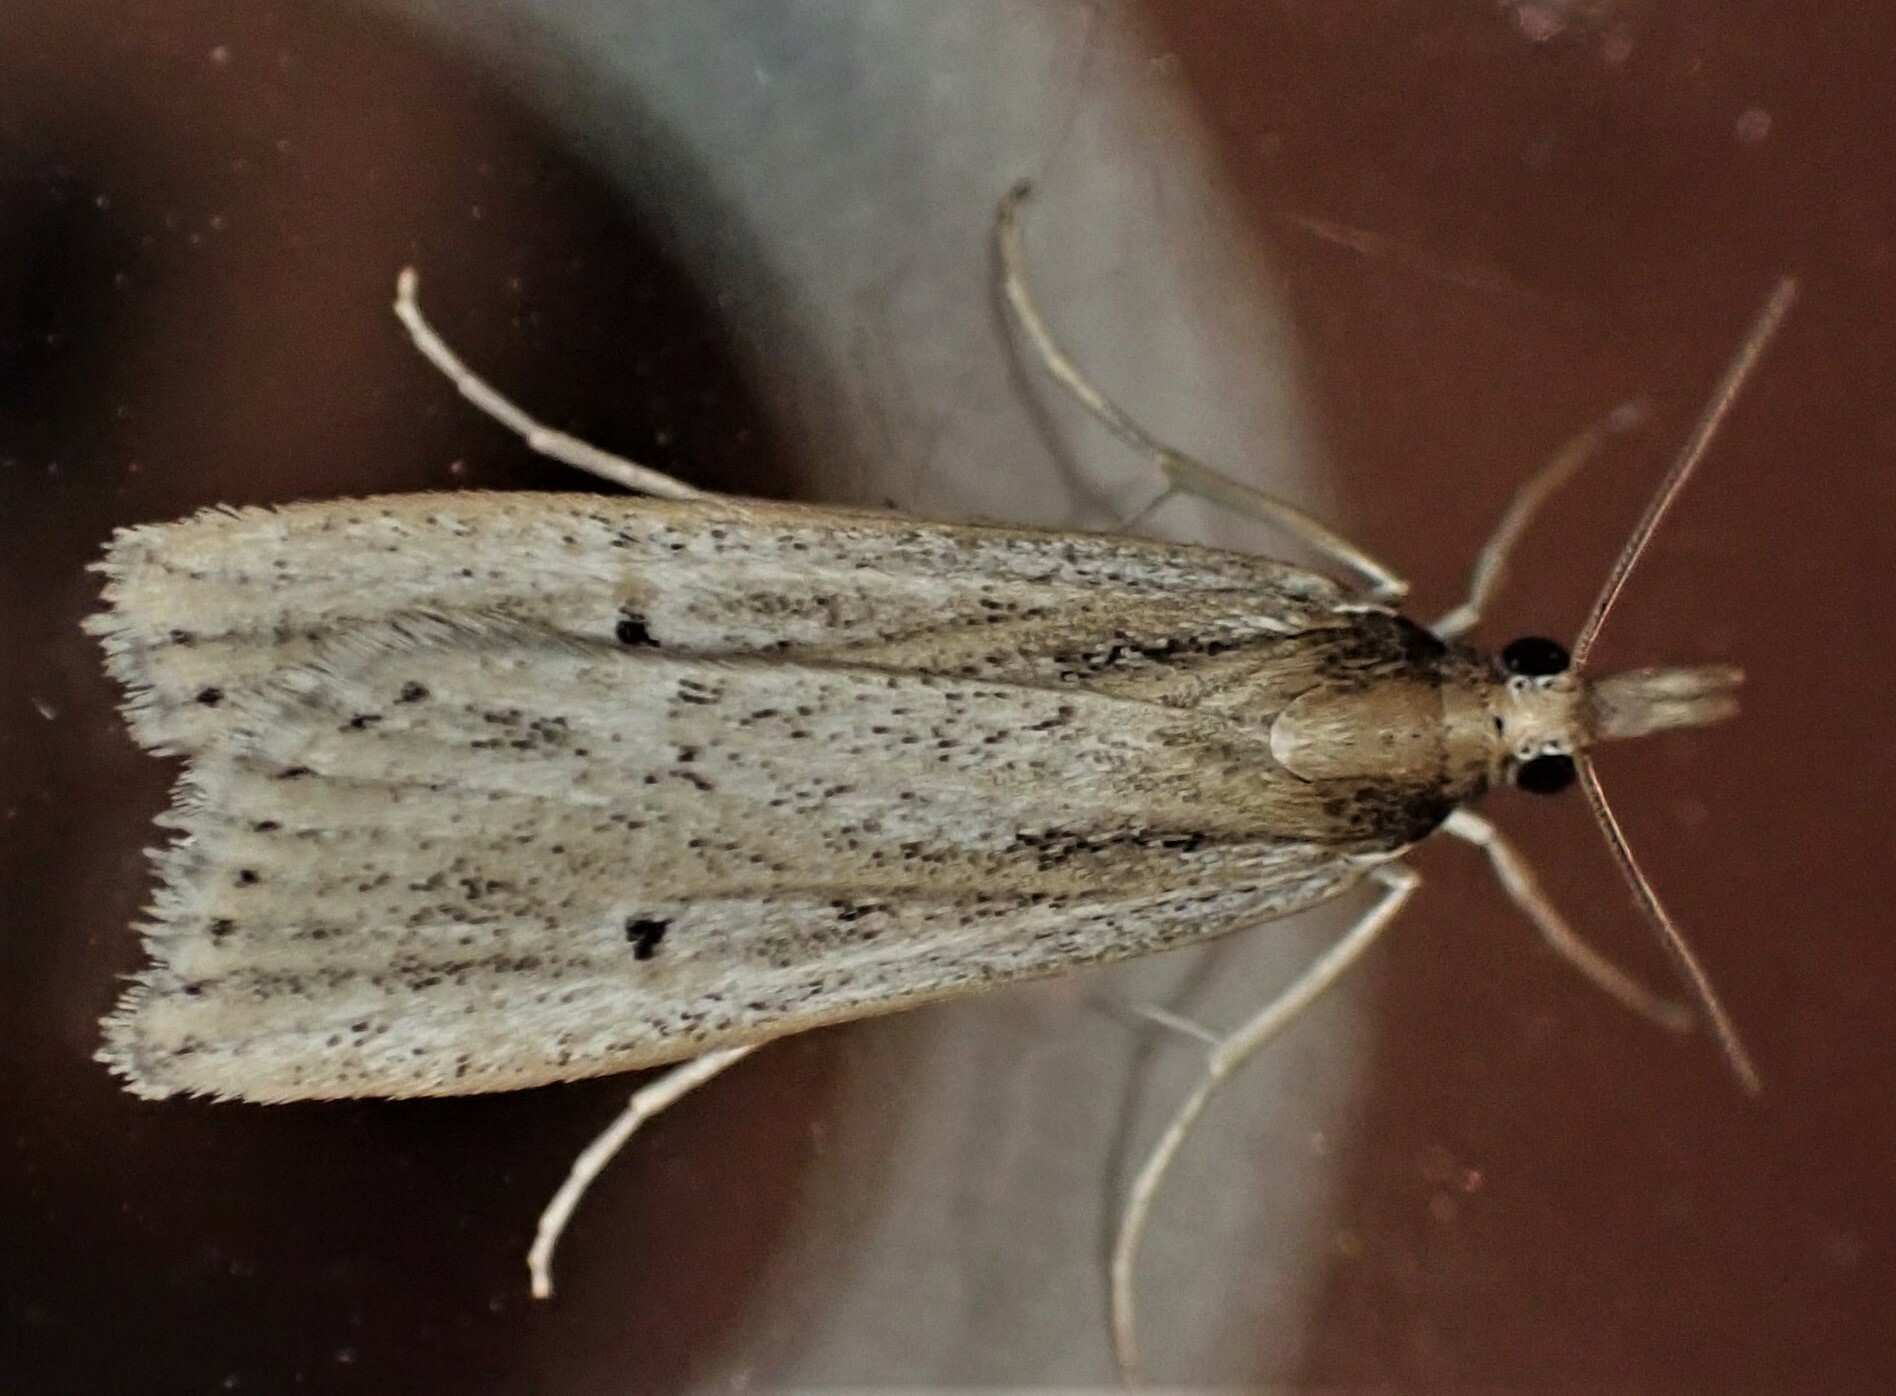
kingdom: Animalia
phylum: Arthropoda
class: Insecta
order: Lepidoptera
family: Crambidae
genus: Eudonia
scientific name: Eudonia sabulosella
